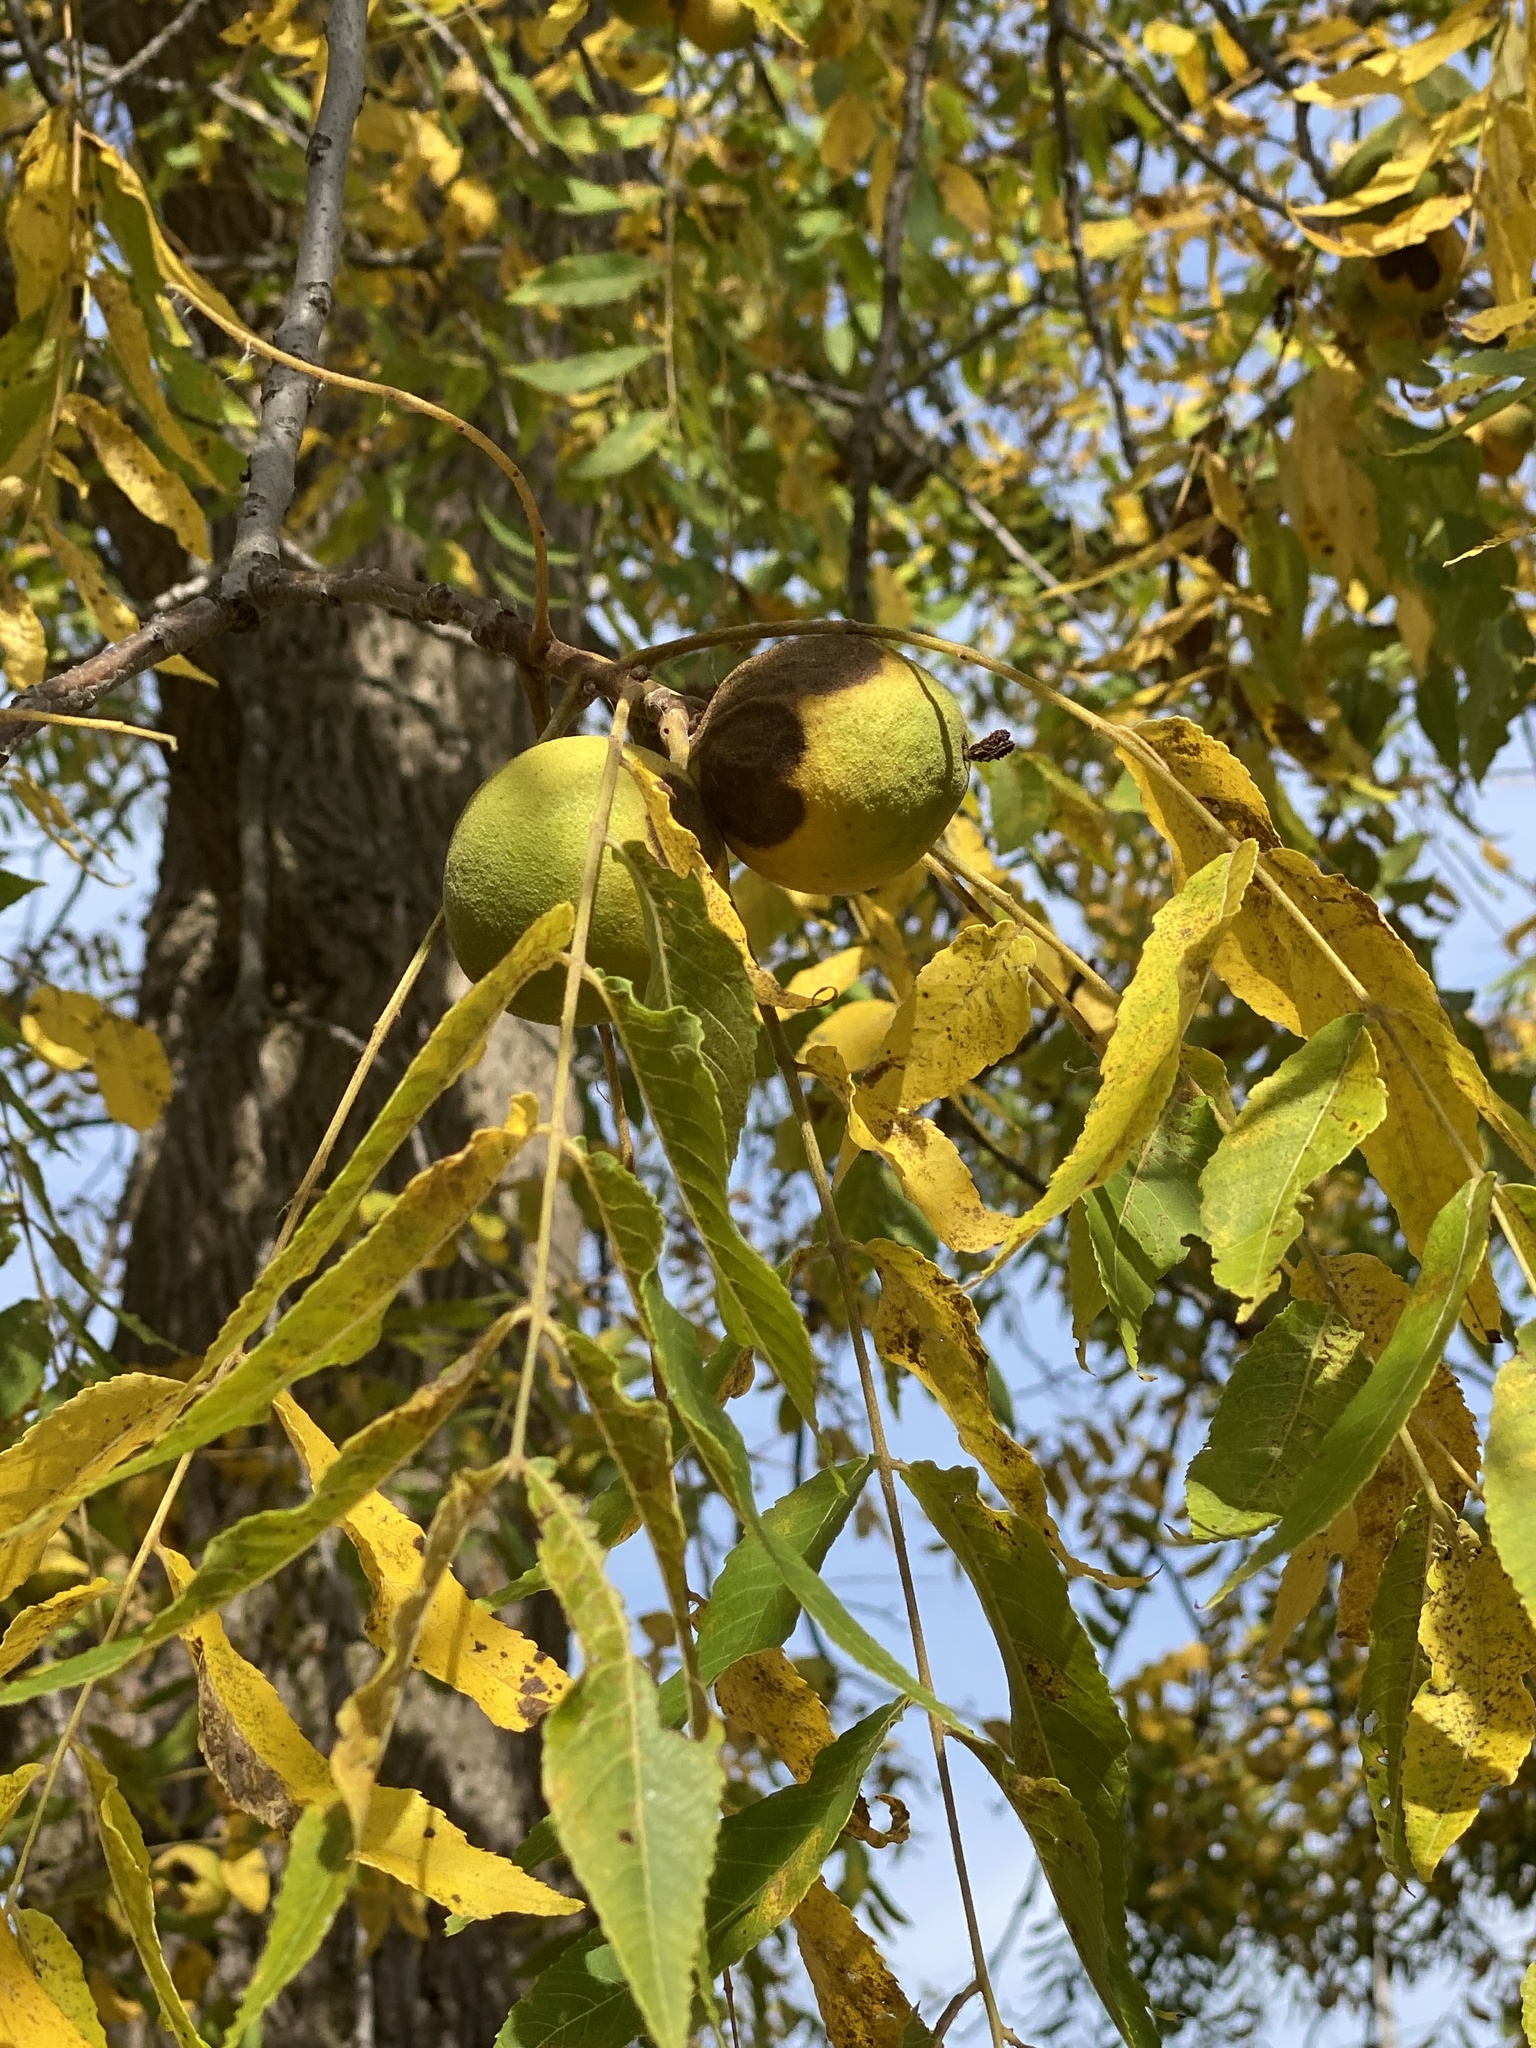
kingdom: Plantae
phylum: Tracheophyta
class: Magnoliopsida
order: Fagales
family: Juglandaceae
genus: Juglans
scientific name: Juglans nigra
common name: Black walnut
